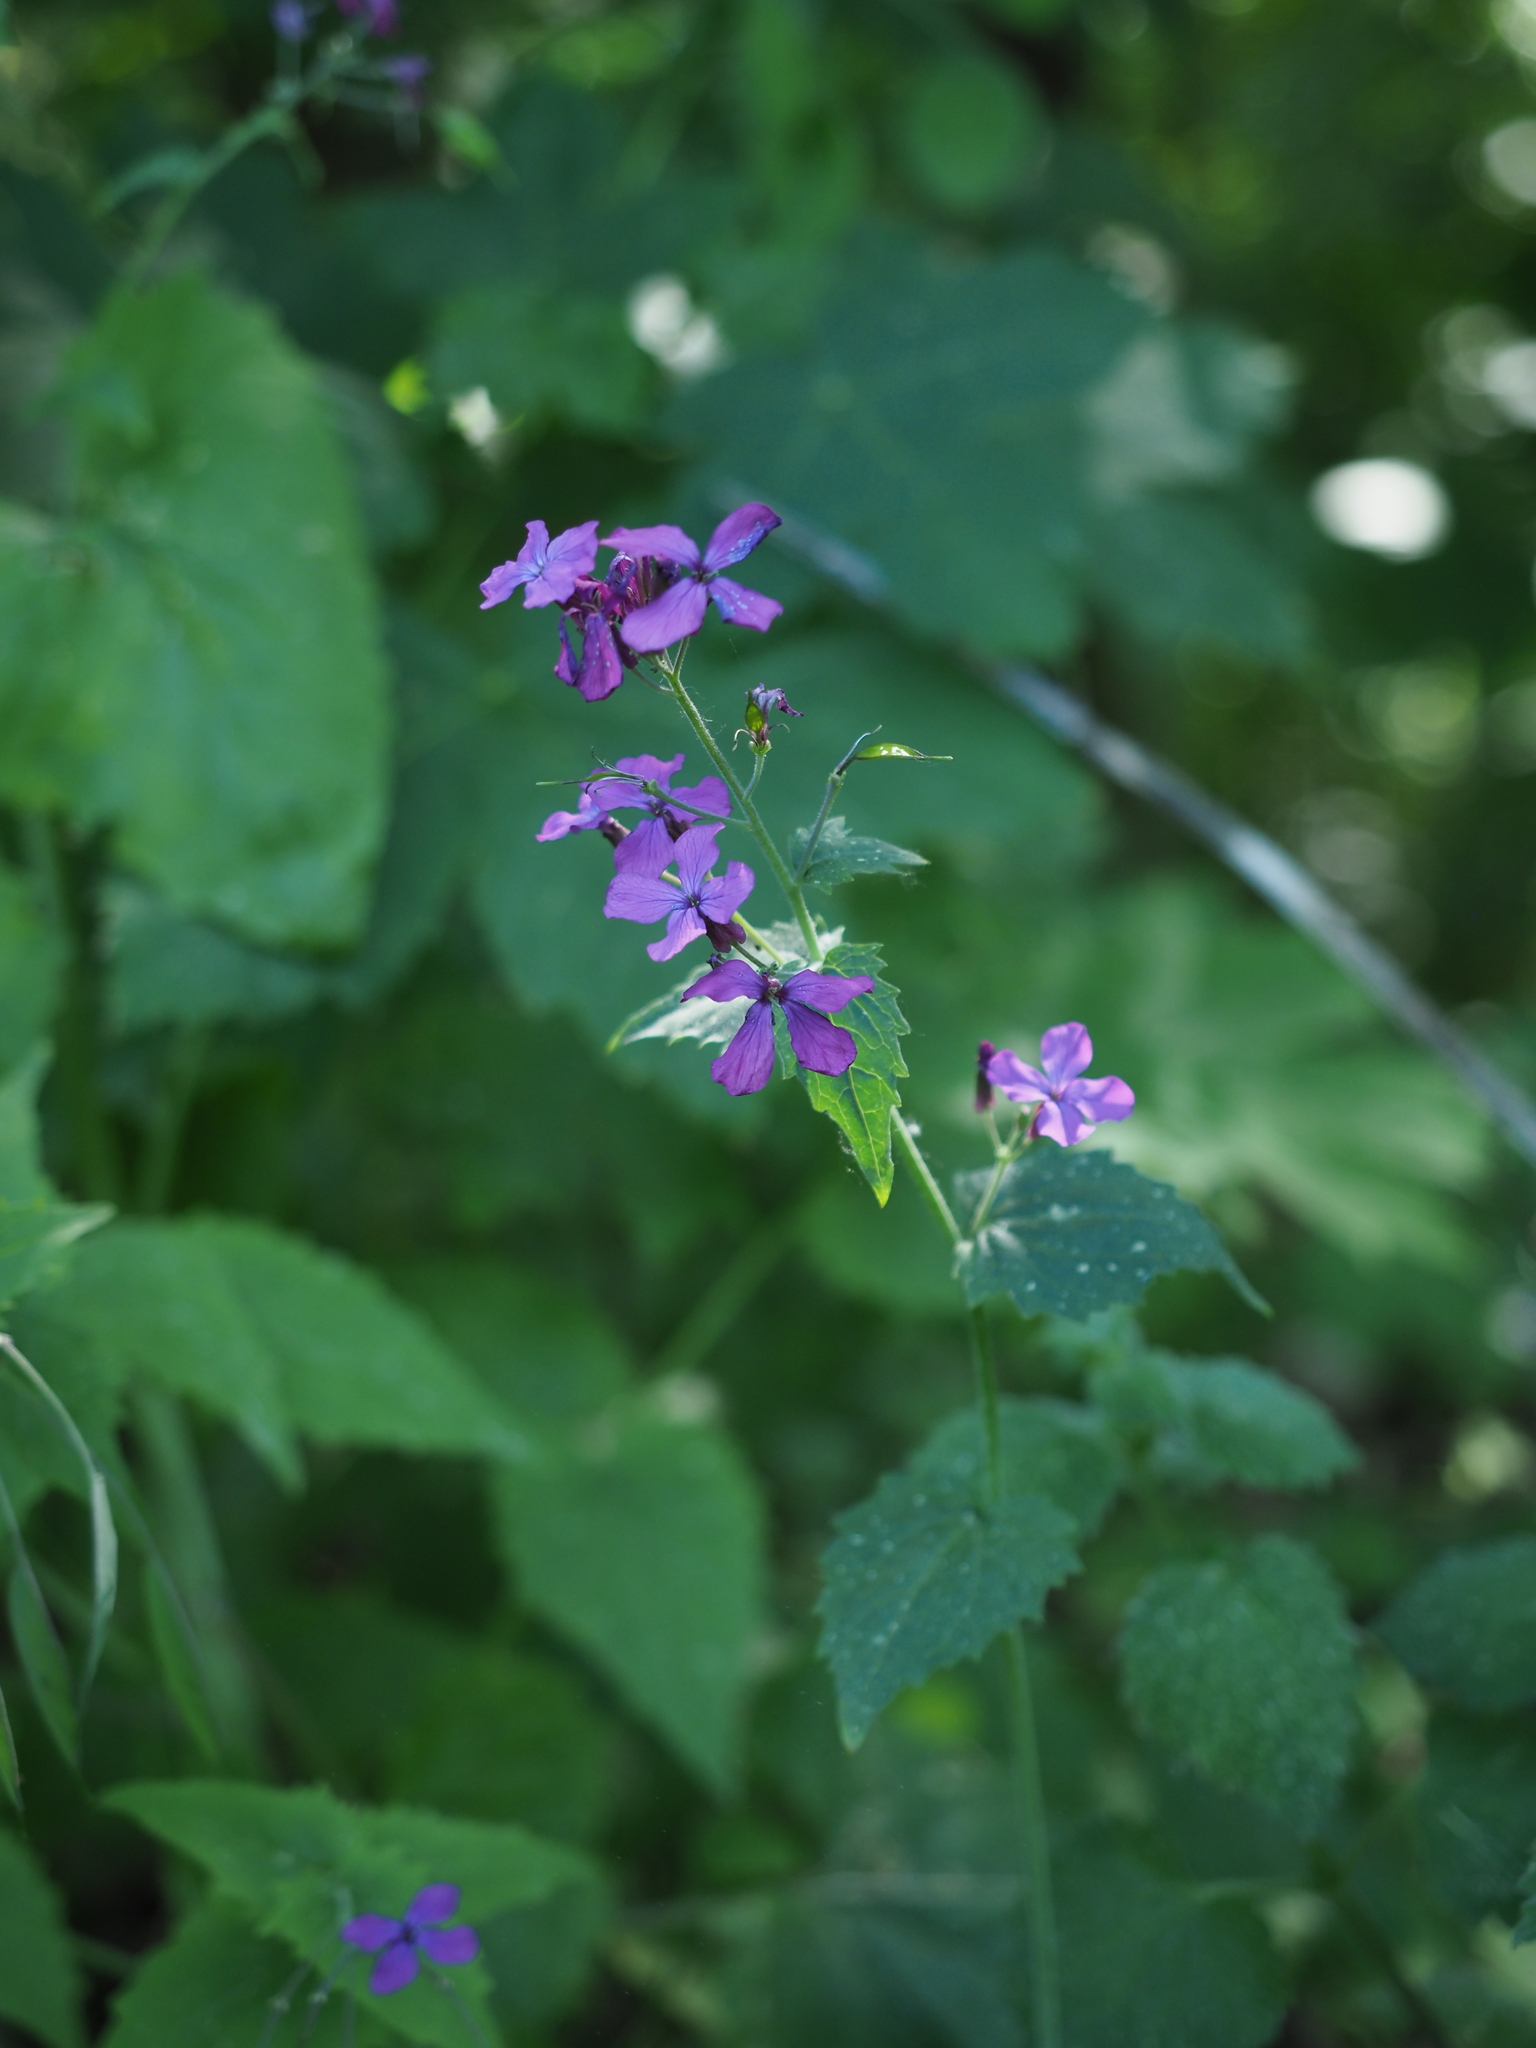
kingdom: Plantae
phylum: Tracheophyta
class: Magnoliopsida
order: Brassicales
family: Brassicaceae
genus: Lunaria
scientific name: Lunaria annua
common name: Honesty
